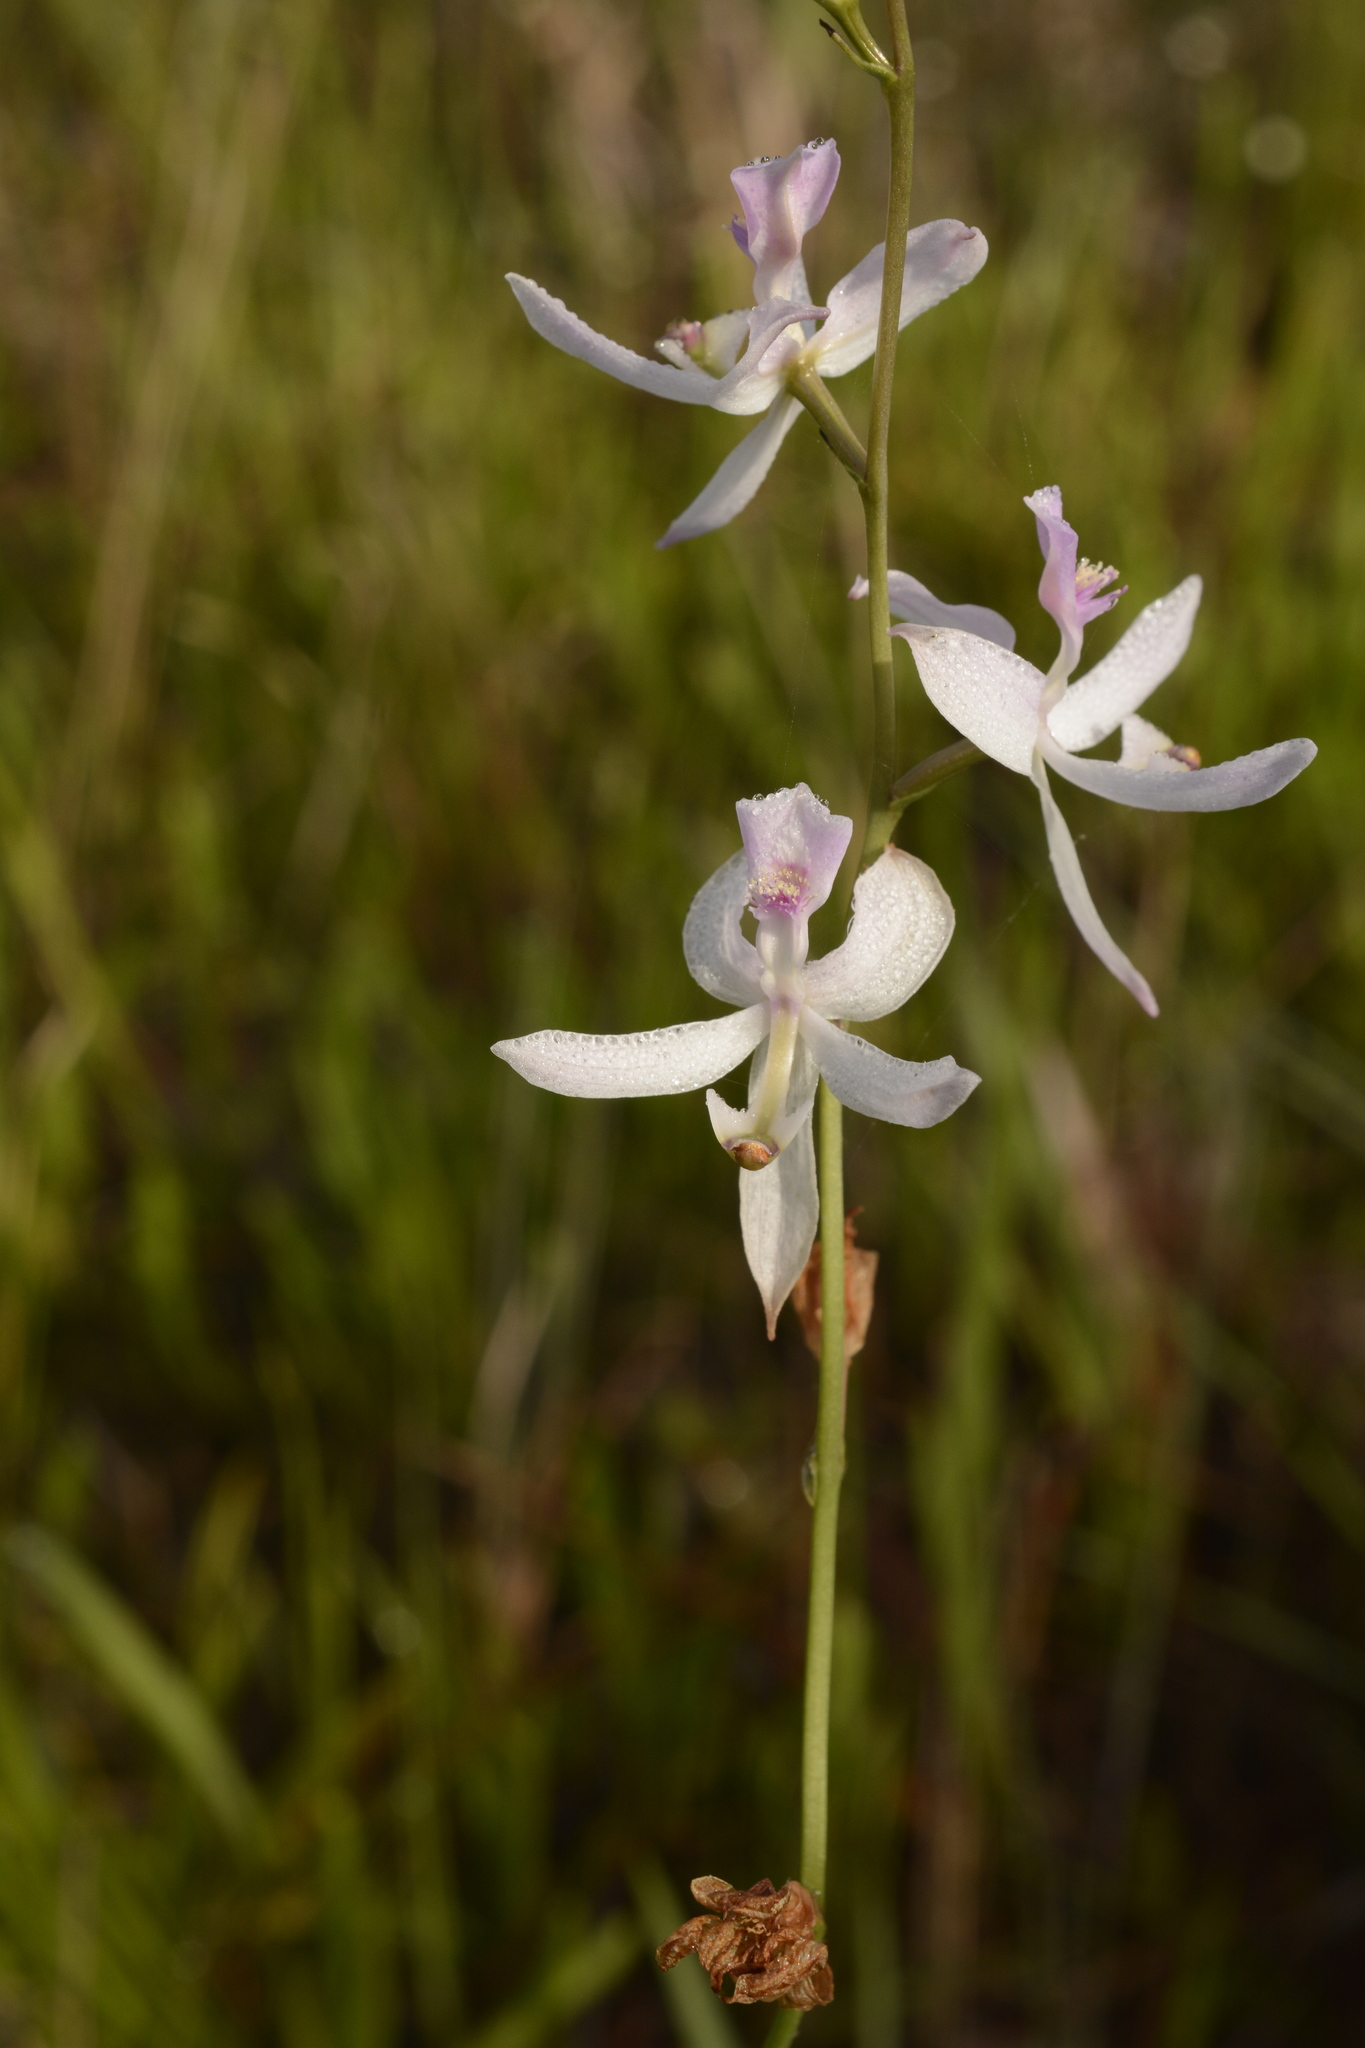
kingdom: Plantae
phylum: Tracheophyta
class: Liliopsida
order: Asparagales
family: Orchidaceae
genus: Calopogon
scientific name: Calopogon pallidus
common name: Pale grasspink
